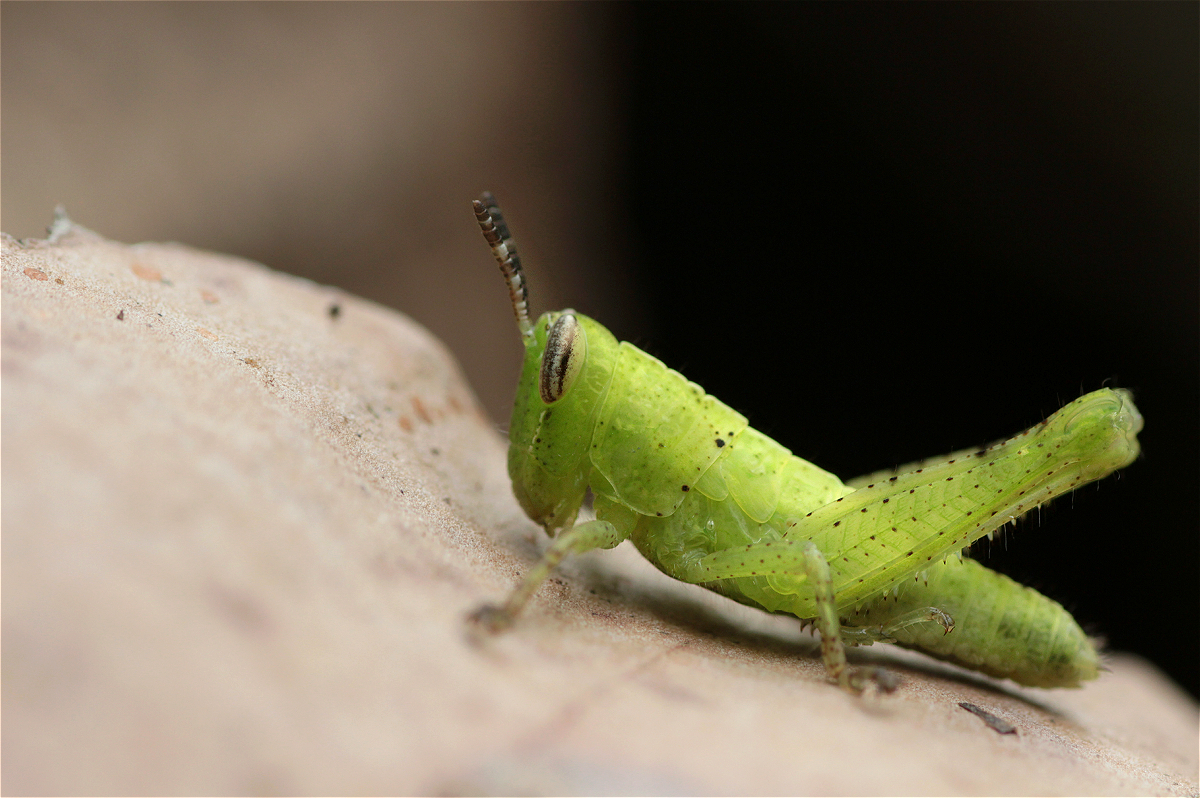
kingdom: Animalia
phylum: Arthropoda
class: Insecta
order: Orthoptera
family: Acrididae
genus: Abracris
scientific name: Abracris flavolineata
